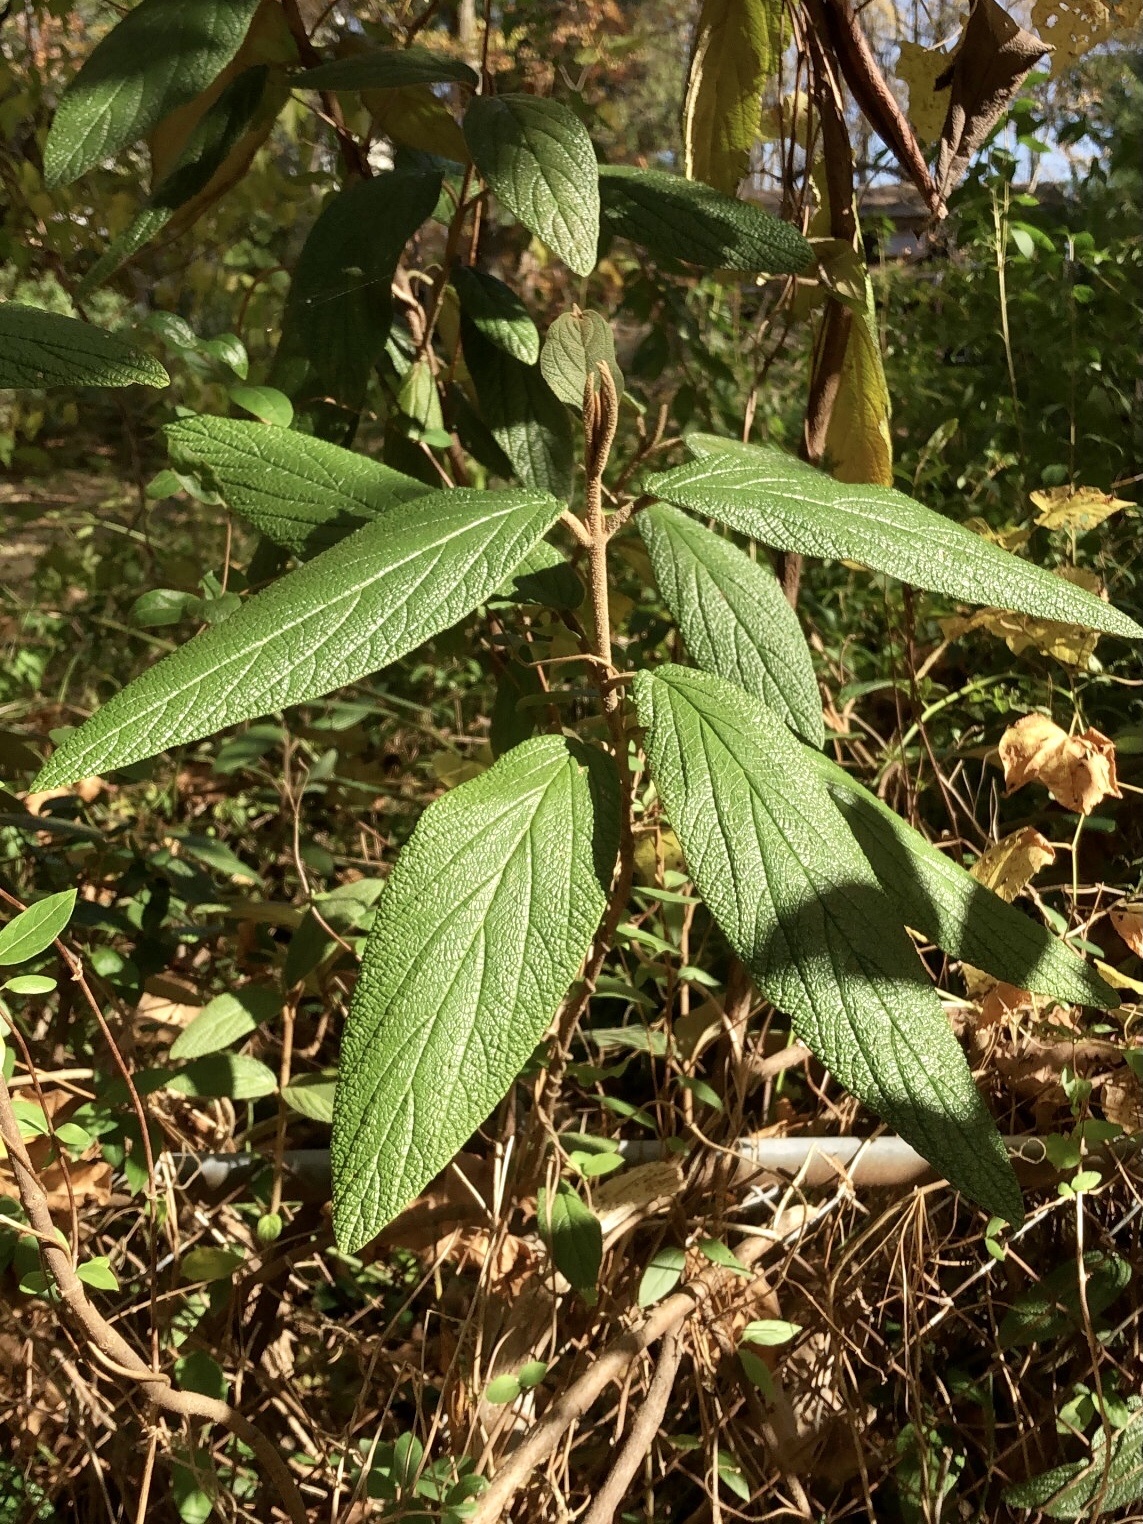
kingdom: Plantae
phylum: Tracheophyta
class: Magnoliopsida
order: Dipsacales
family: Viburnaceae
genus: Viburnum
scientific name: Viburnum rhytidophyllum
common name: Wrinkled viburnum
